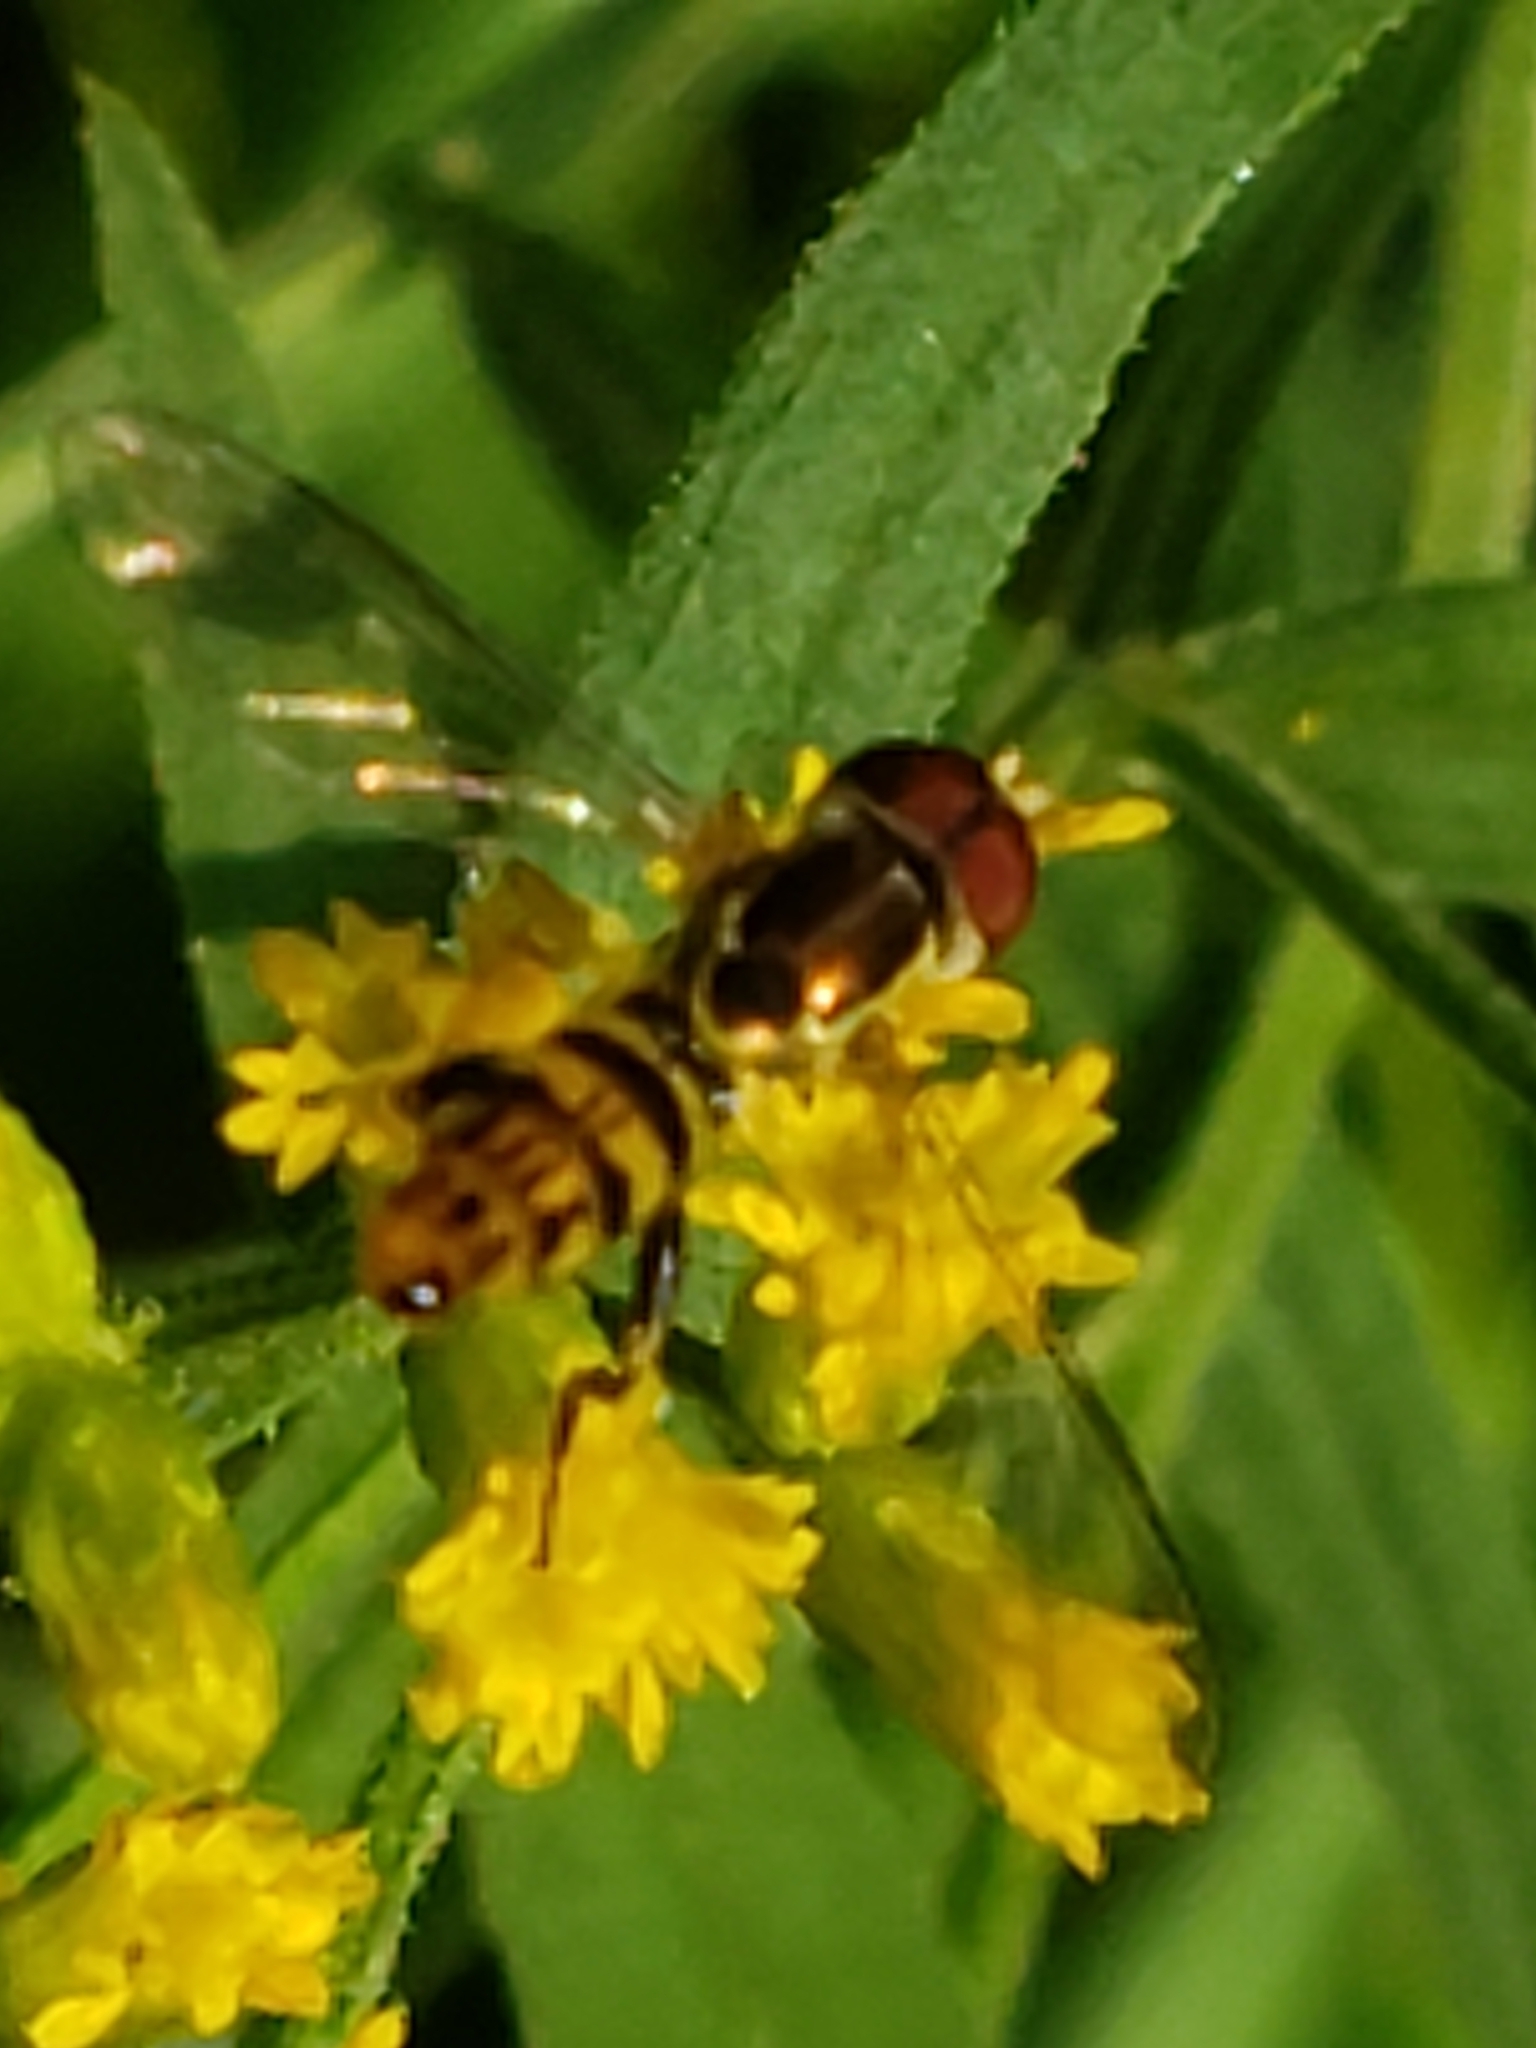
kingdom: Animalia
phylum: Arthropoda
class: Insecta
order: Diptera
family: Syrphidae
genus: Toxomerus
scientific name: Toxomerus geminatus
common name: Eastern calligrapher
